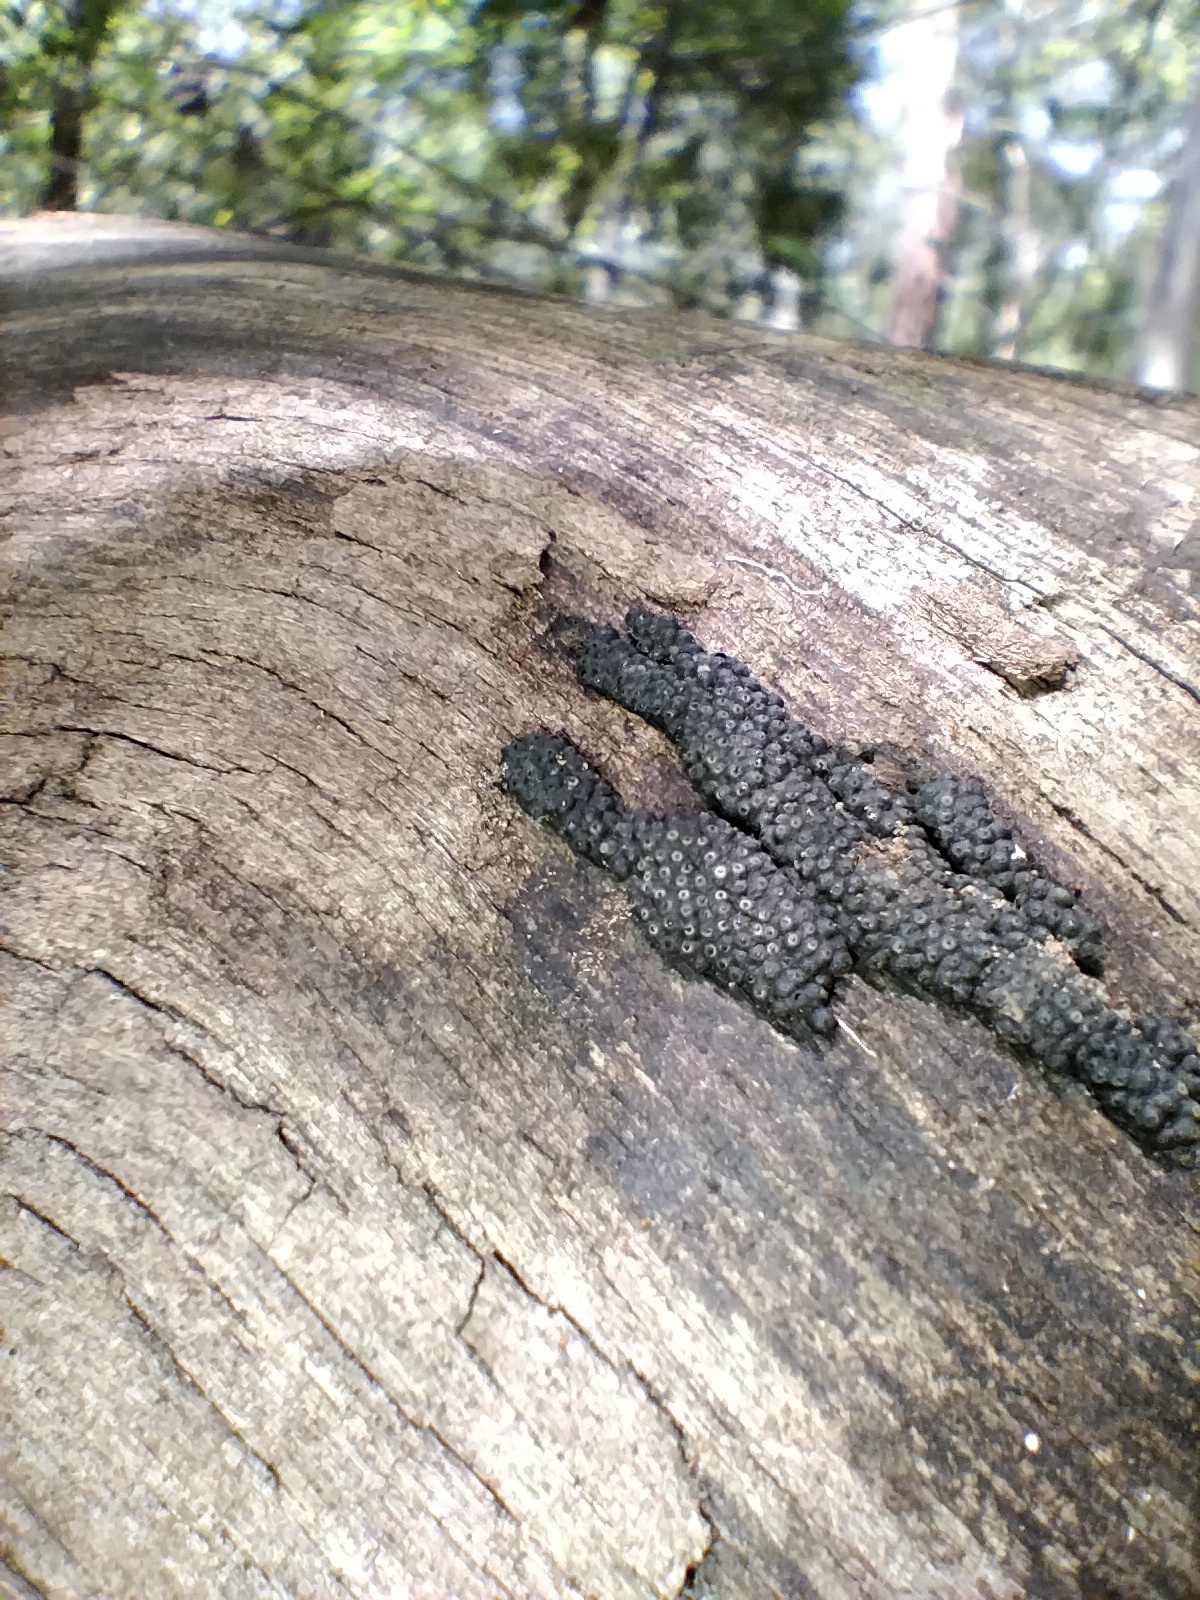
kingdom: Fungi
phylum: Ascomycota
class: Sordariomycetes
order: Xylariales
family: Hypoxylaceae
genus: Annulohypoxylon
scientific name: Annulohypoxylon bovei
